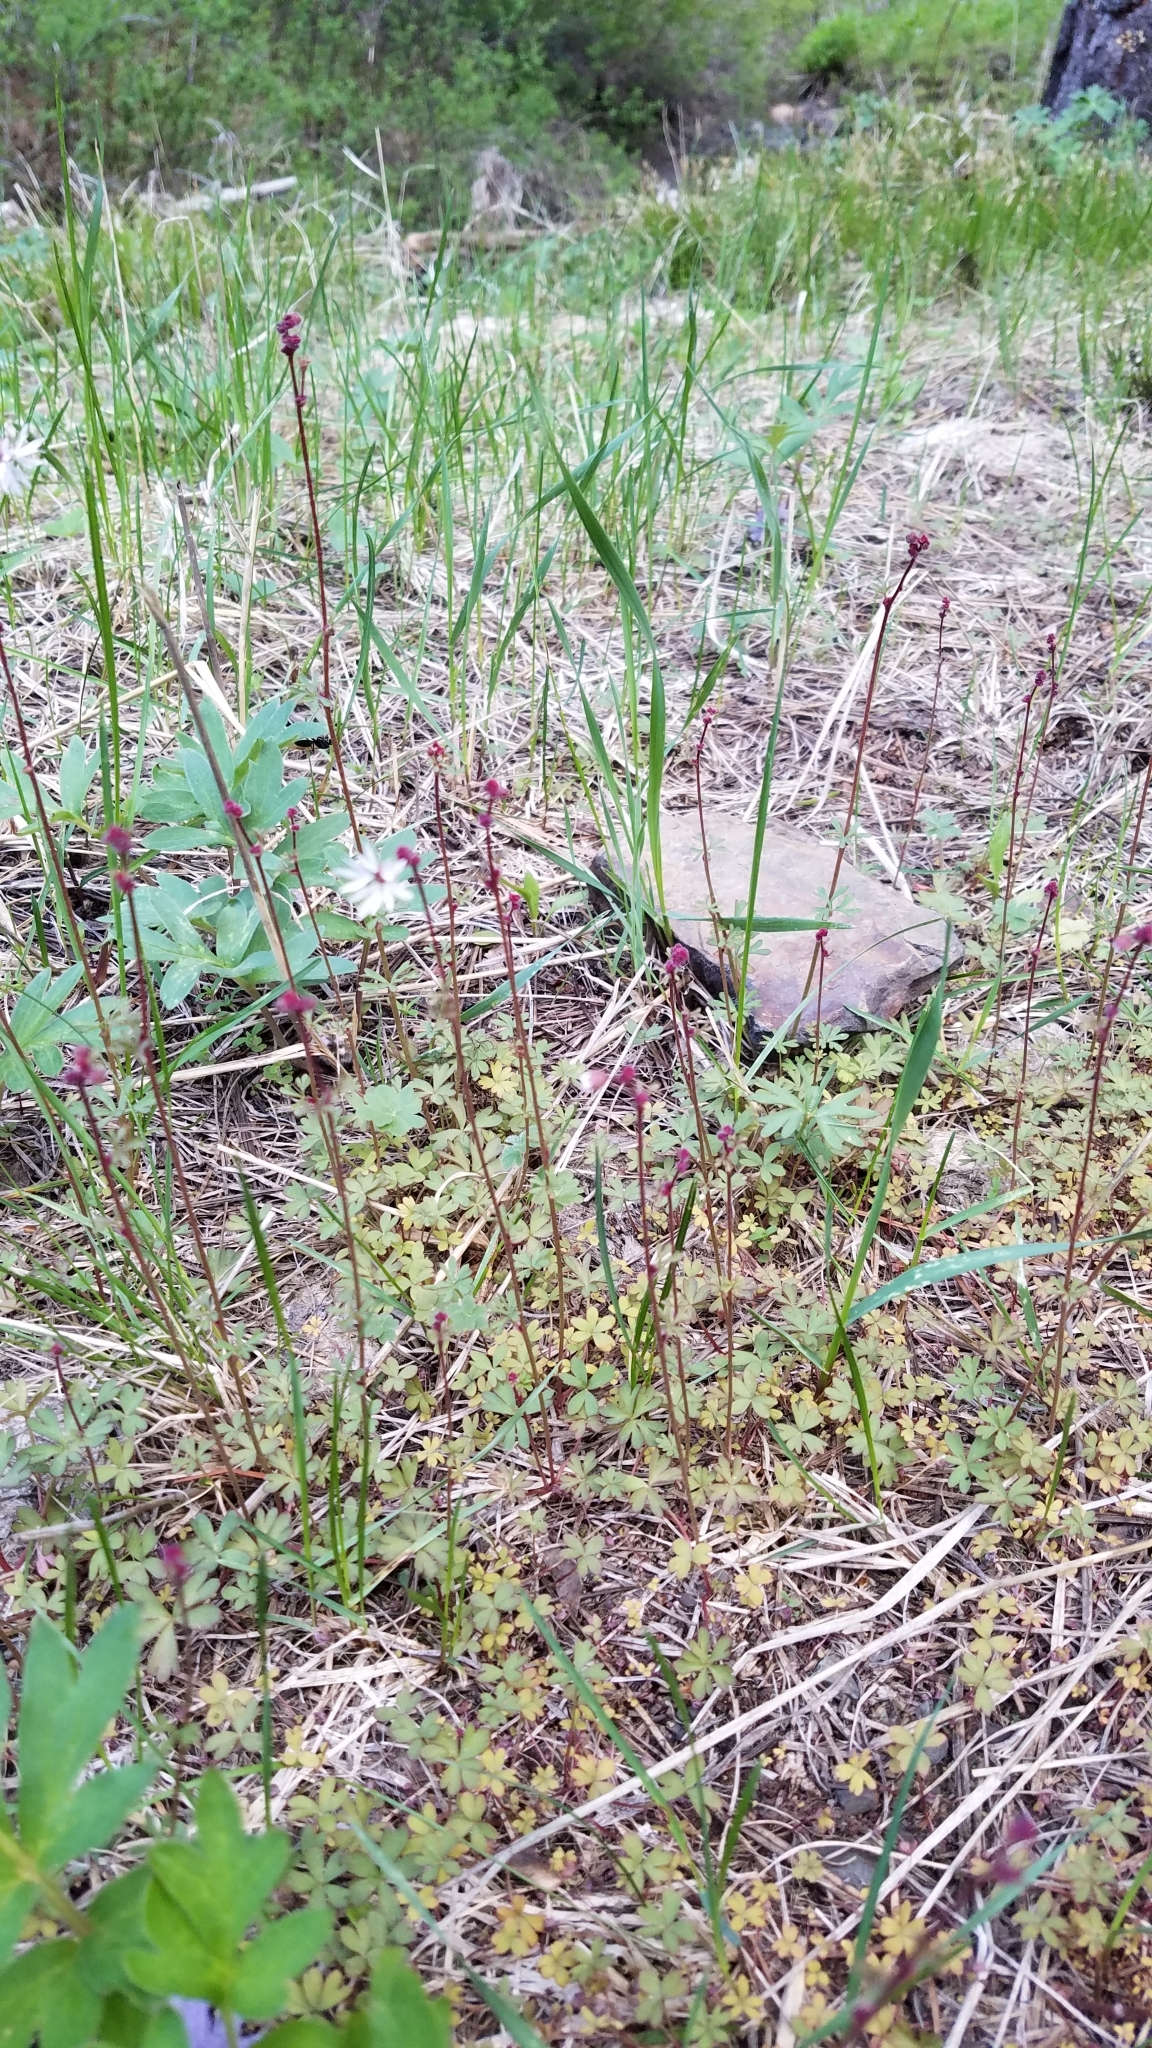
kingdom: Plantae
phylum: Tracheophyta
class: Magnoliopsida
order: Saxifragales
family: Saxifragaceae
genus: Lithophragma
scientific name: Lithophragma glabrum
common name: Bulbous prairie-star
